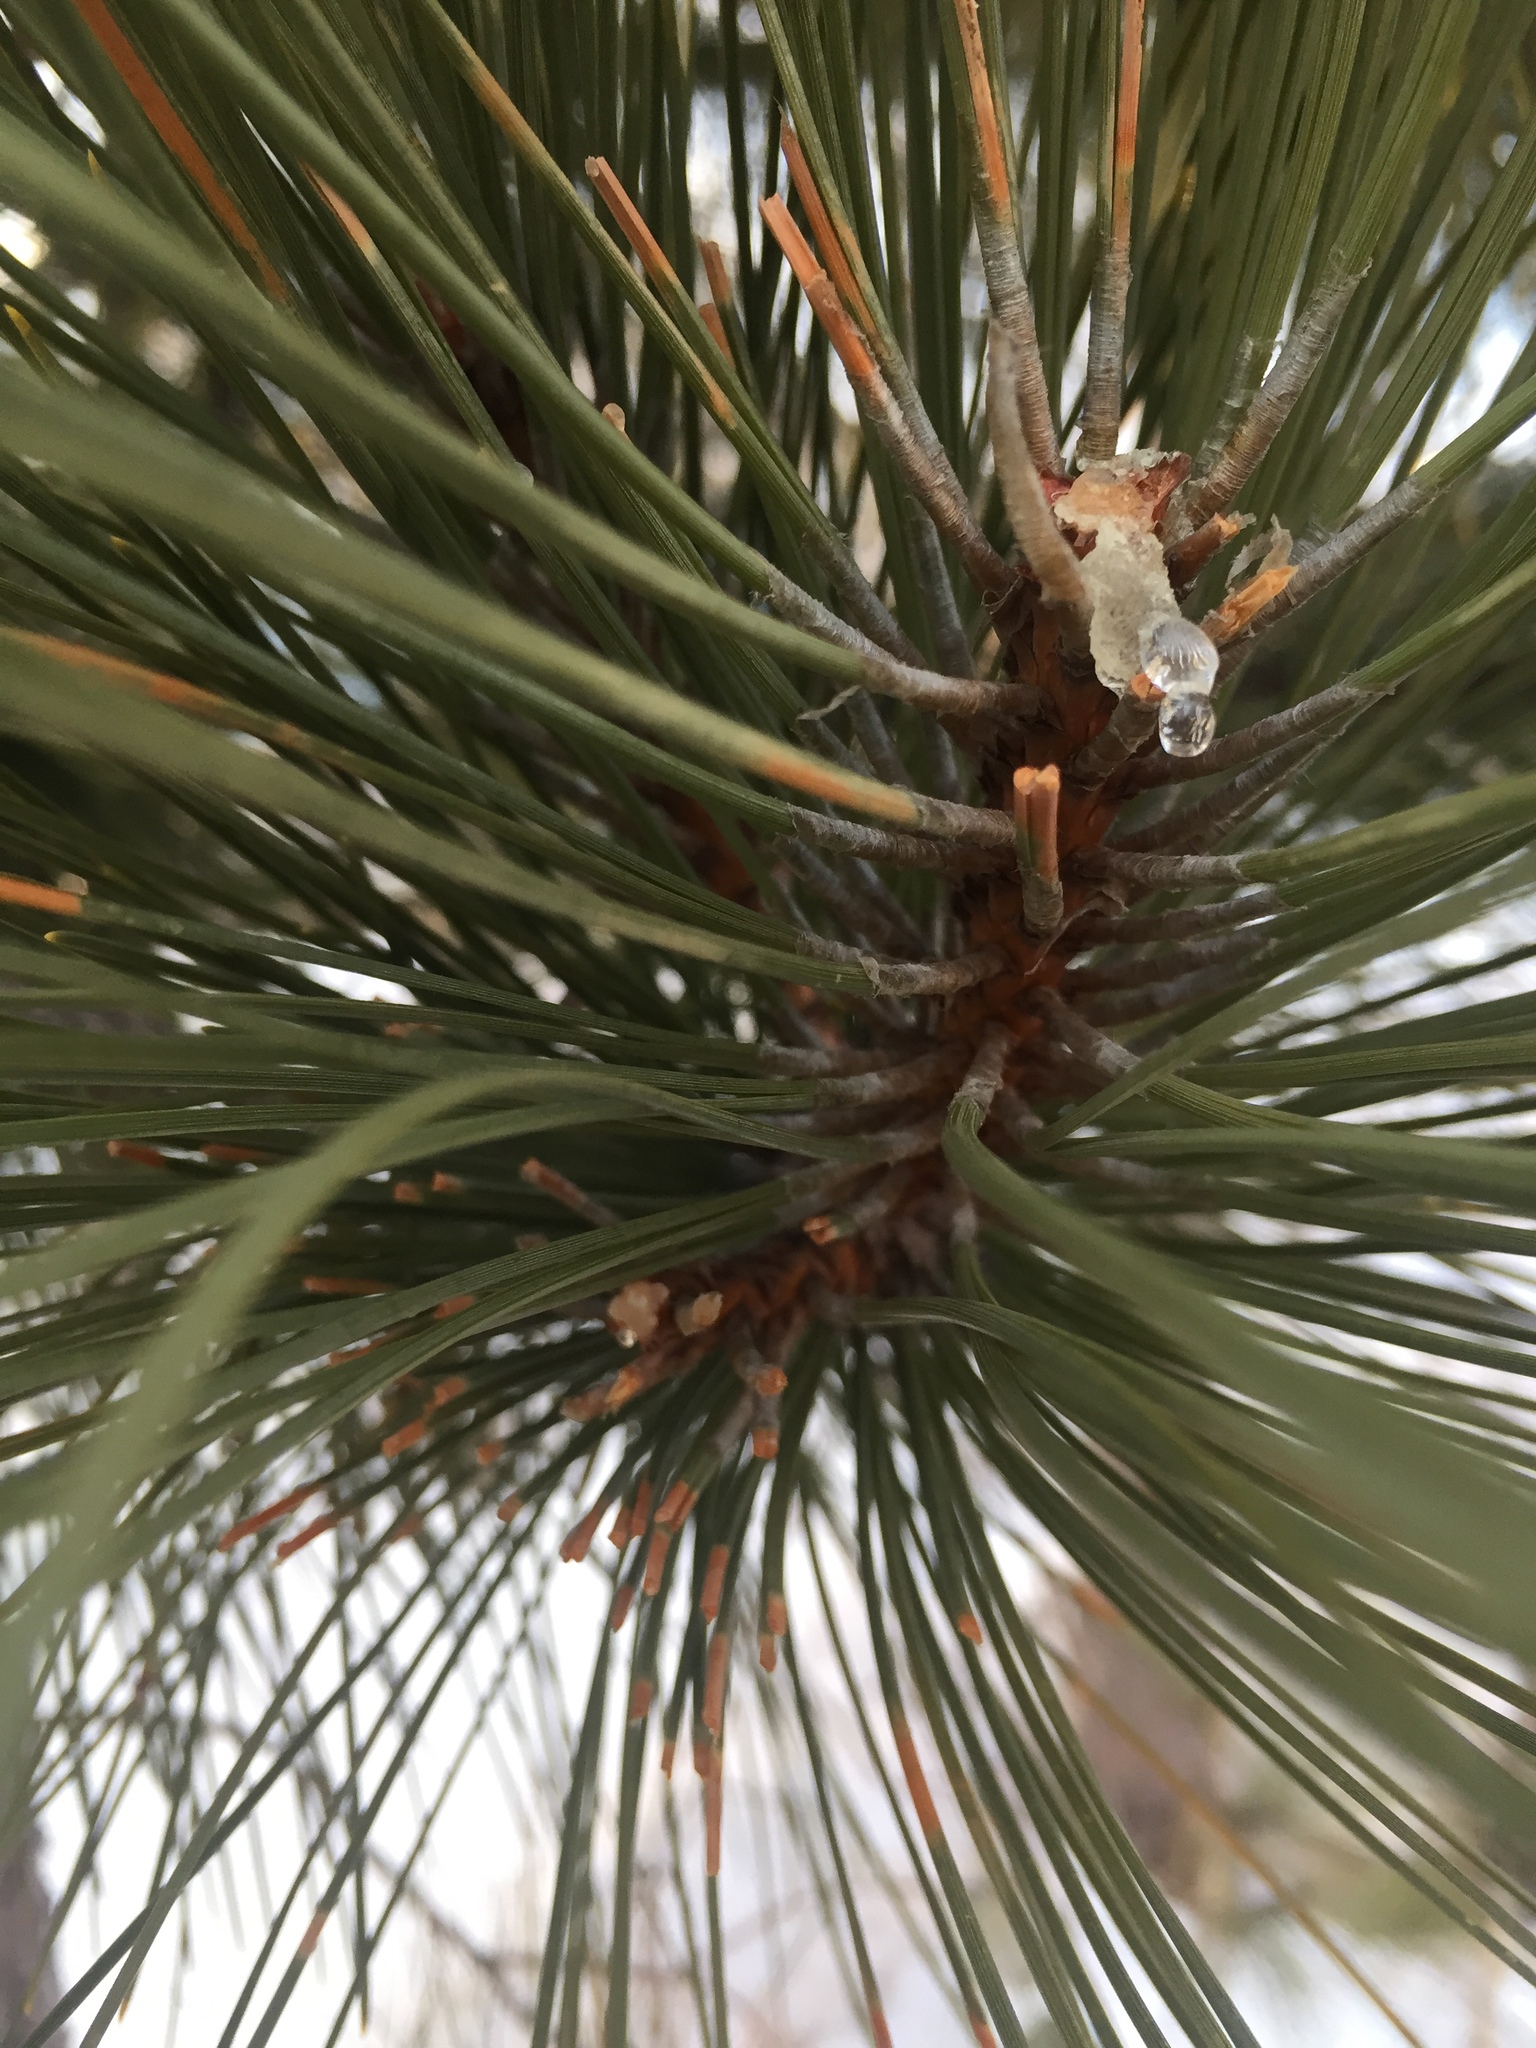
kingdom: Plantae
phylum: Tracheophyta
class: Pinopsida
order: Pinales
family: Pinaceae
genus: Pinus
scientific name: Pinus resinosa
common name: Norway pine
